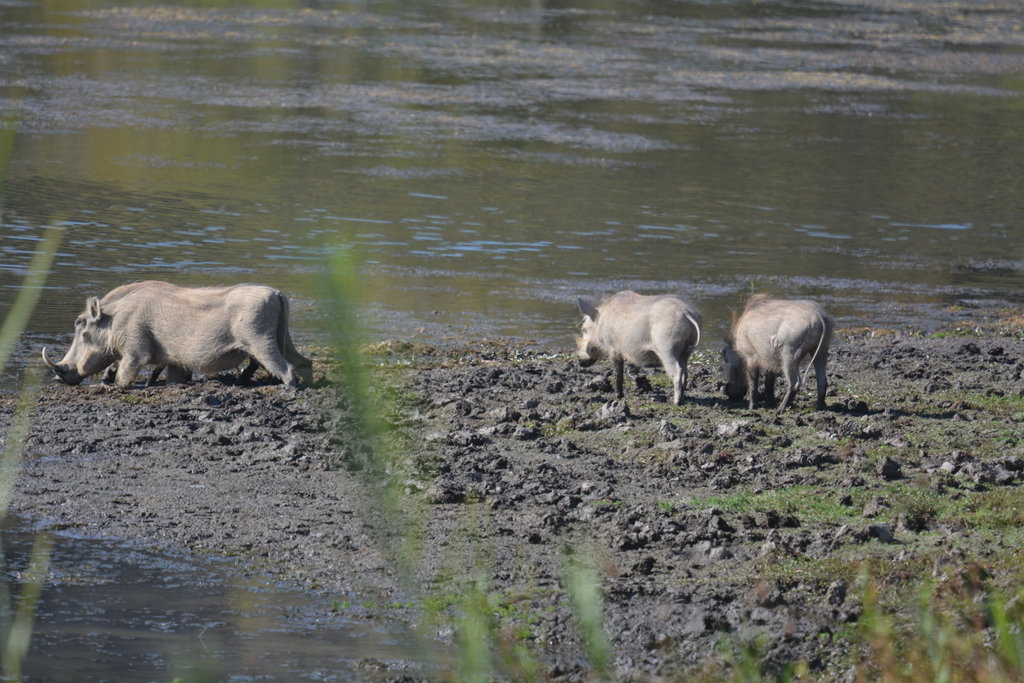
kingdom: Animalia
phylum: Chordata
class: Mammalia
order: Artiodactyla
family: Suidae
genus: Phacochoerus
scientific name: Phacochoerus africanus
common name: Common warthog
